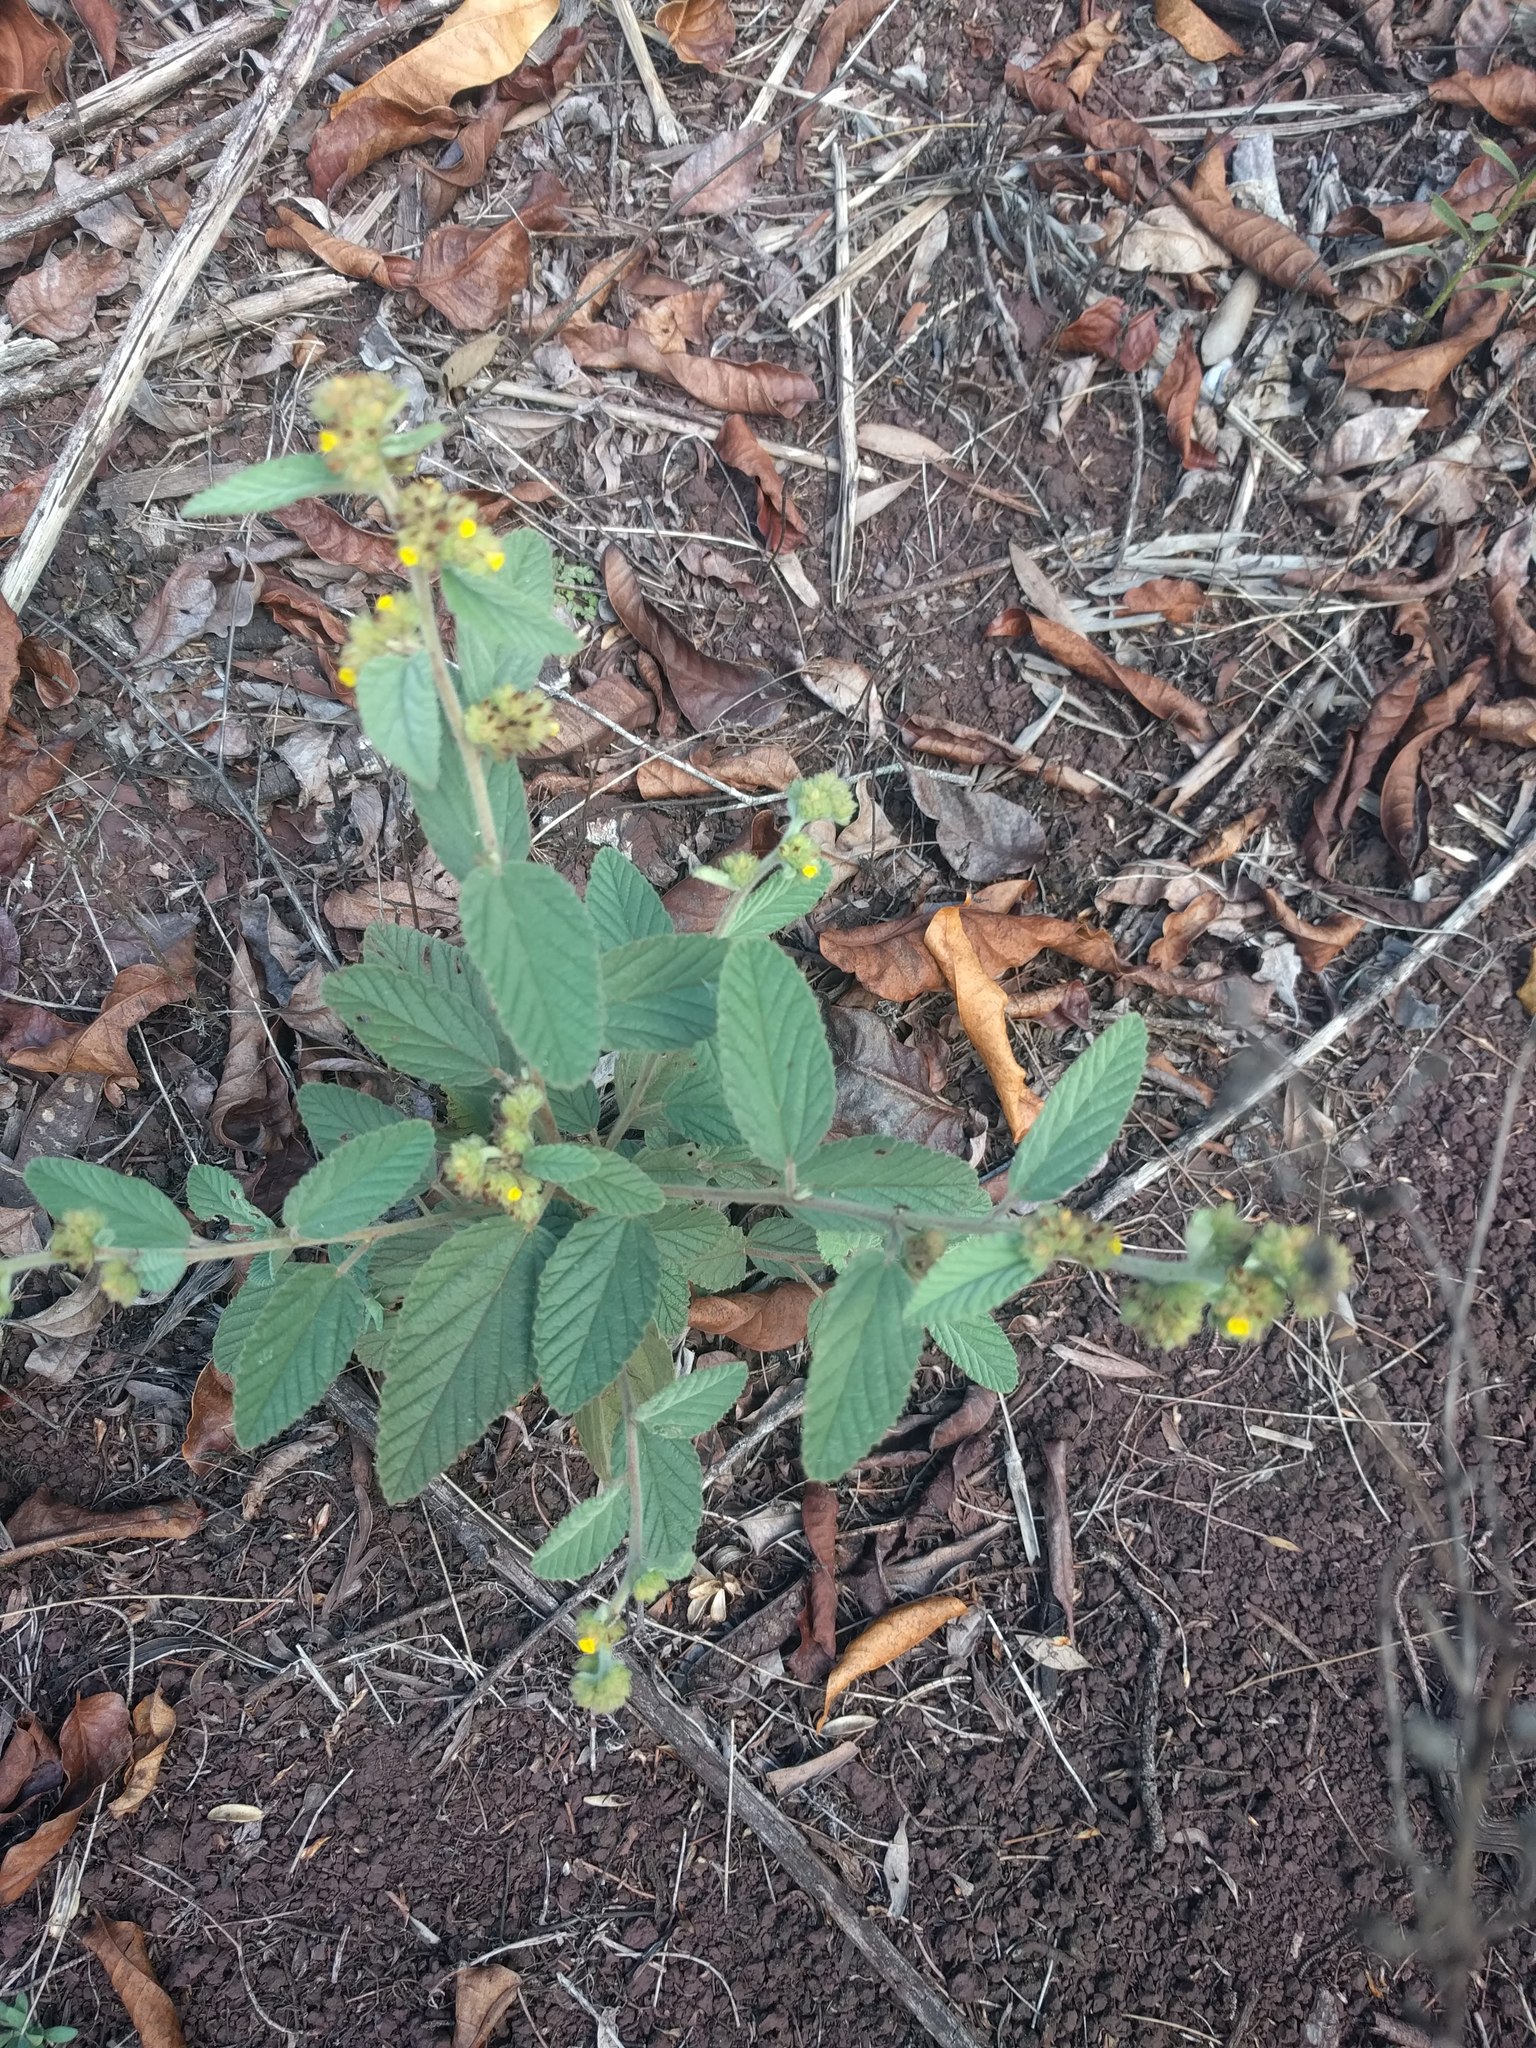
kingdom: Plantae
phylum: Tracheophyta
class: Magnoliopsida
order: Malvales
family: Malvaceae
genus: Waltheria
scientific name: Waltheria indica
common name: Leather-coat
